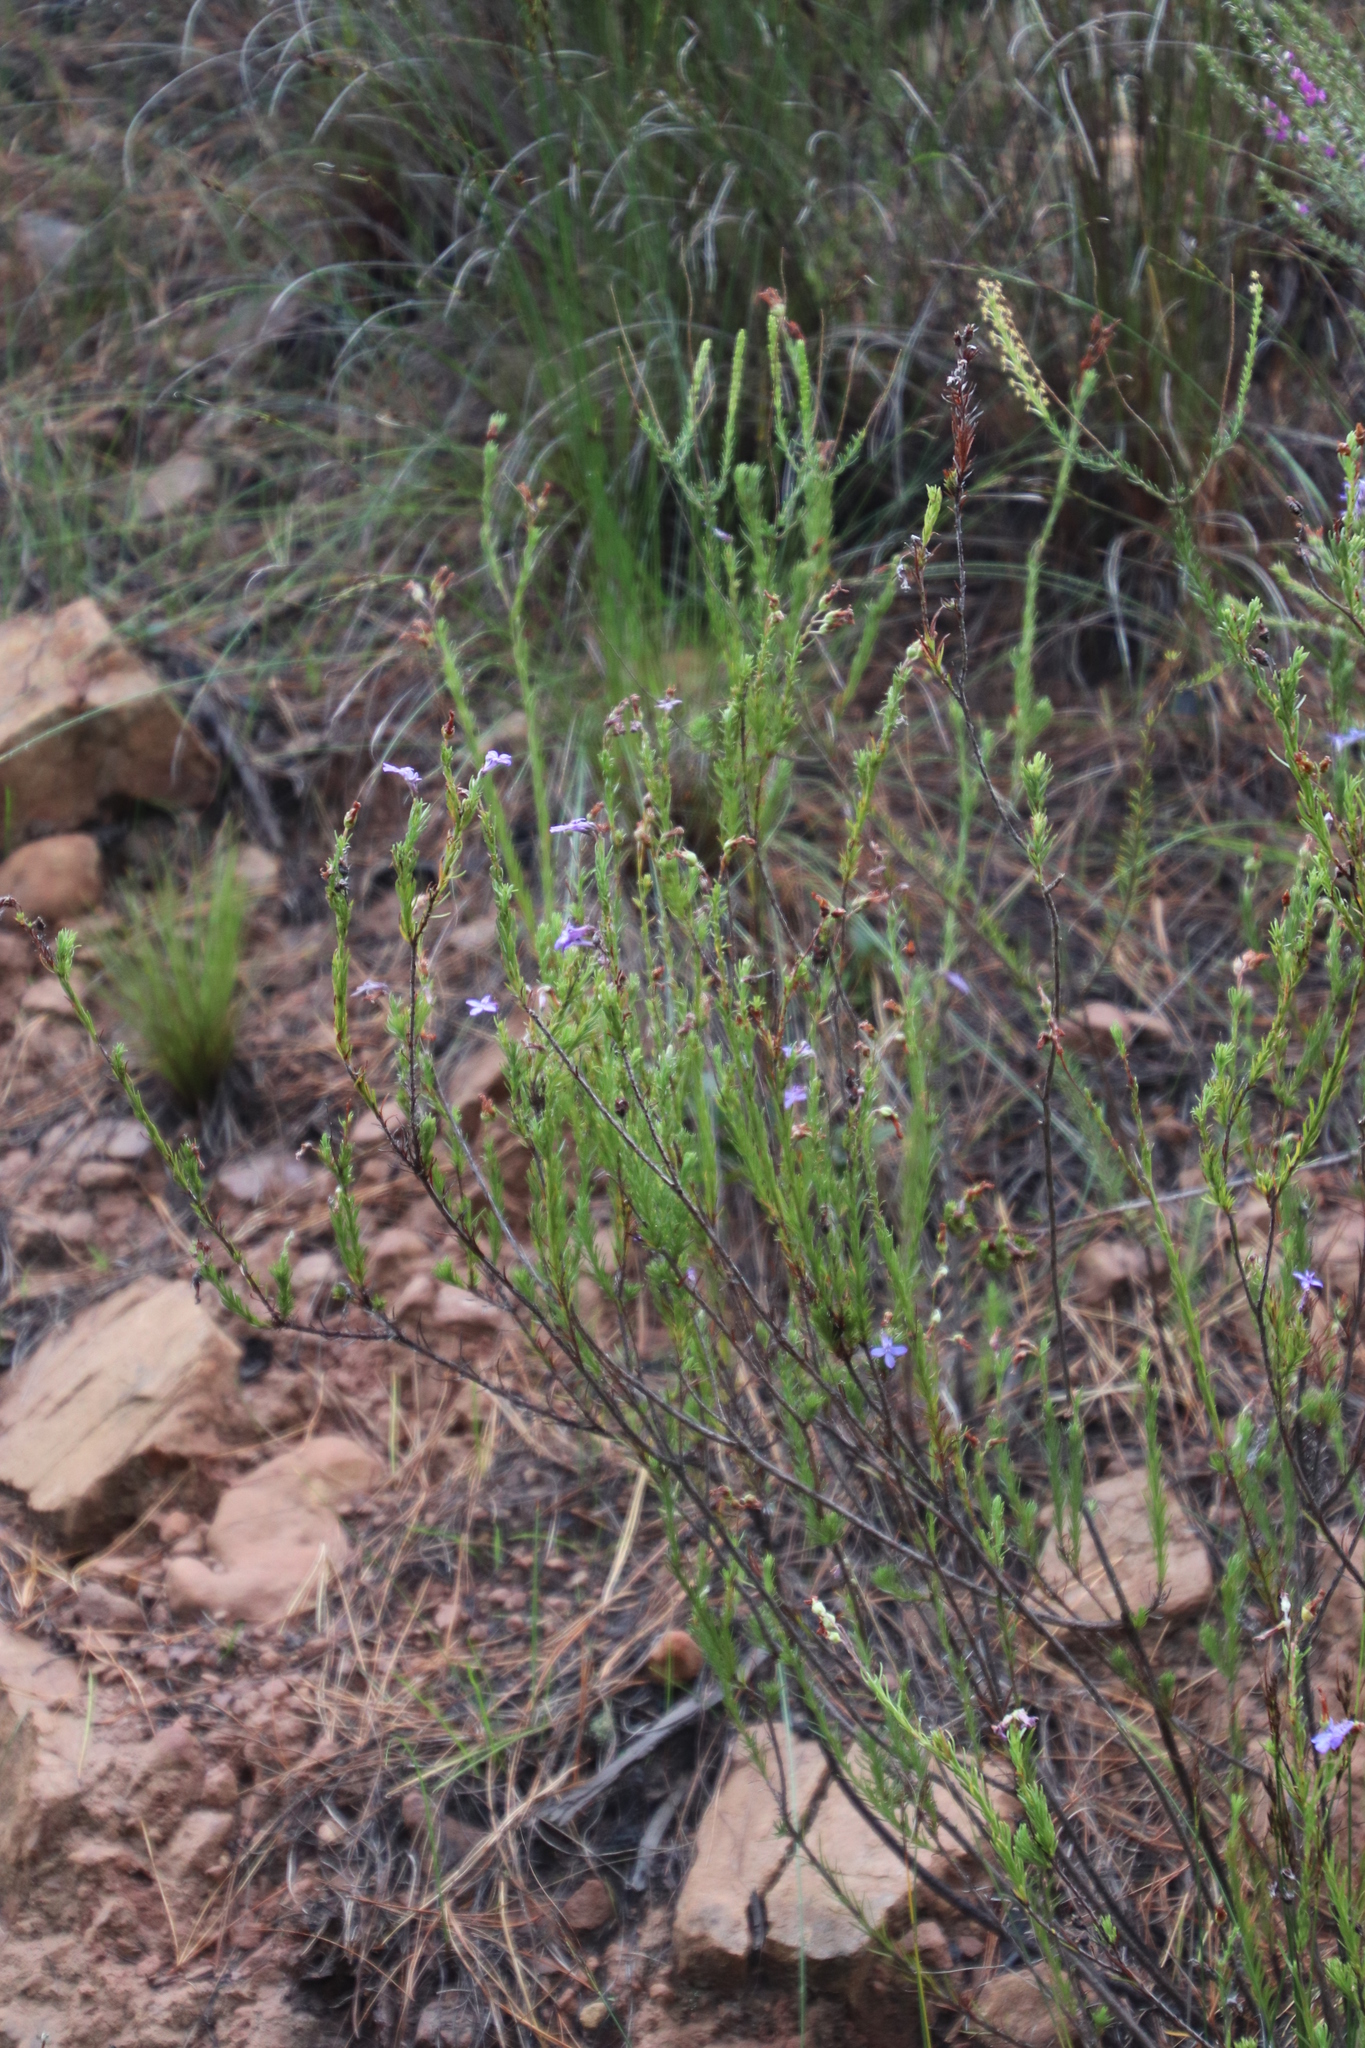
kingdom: Plantae
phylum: Tracheophyta
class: Magnoliopsida
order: Asterales
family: Campanulaceae
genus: Lobelia
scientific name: Lobelia pinifolia
